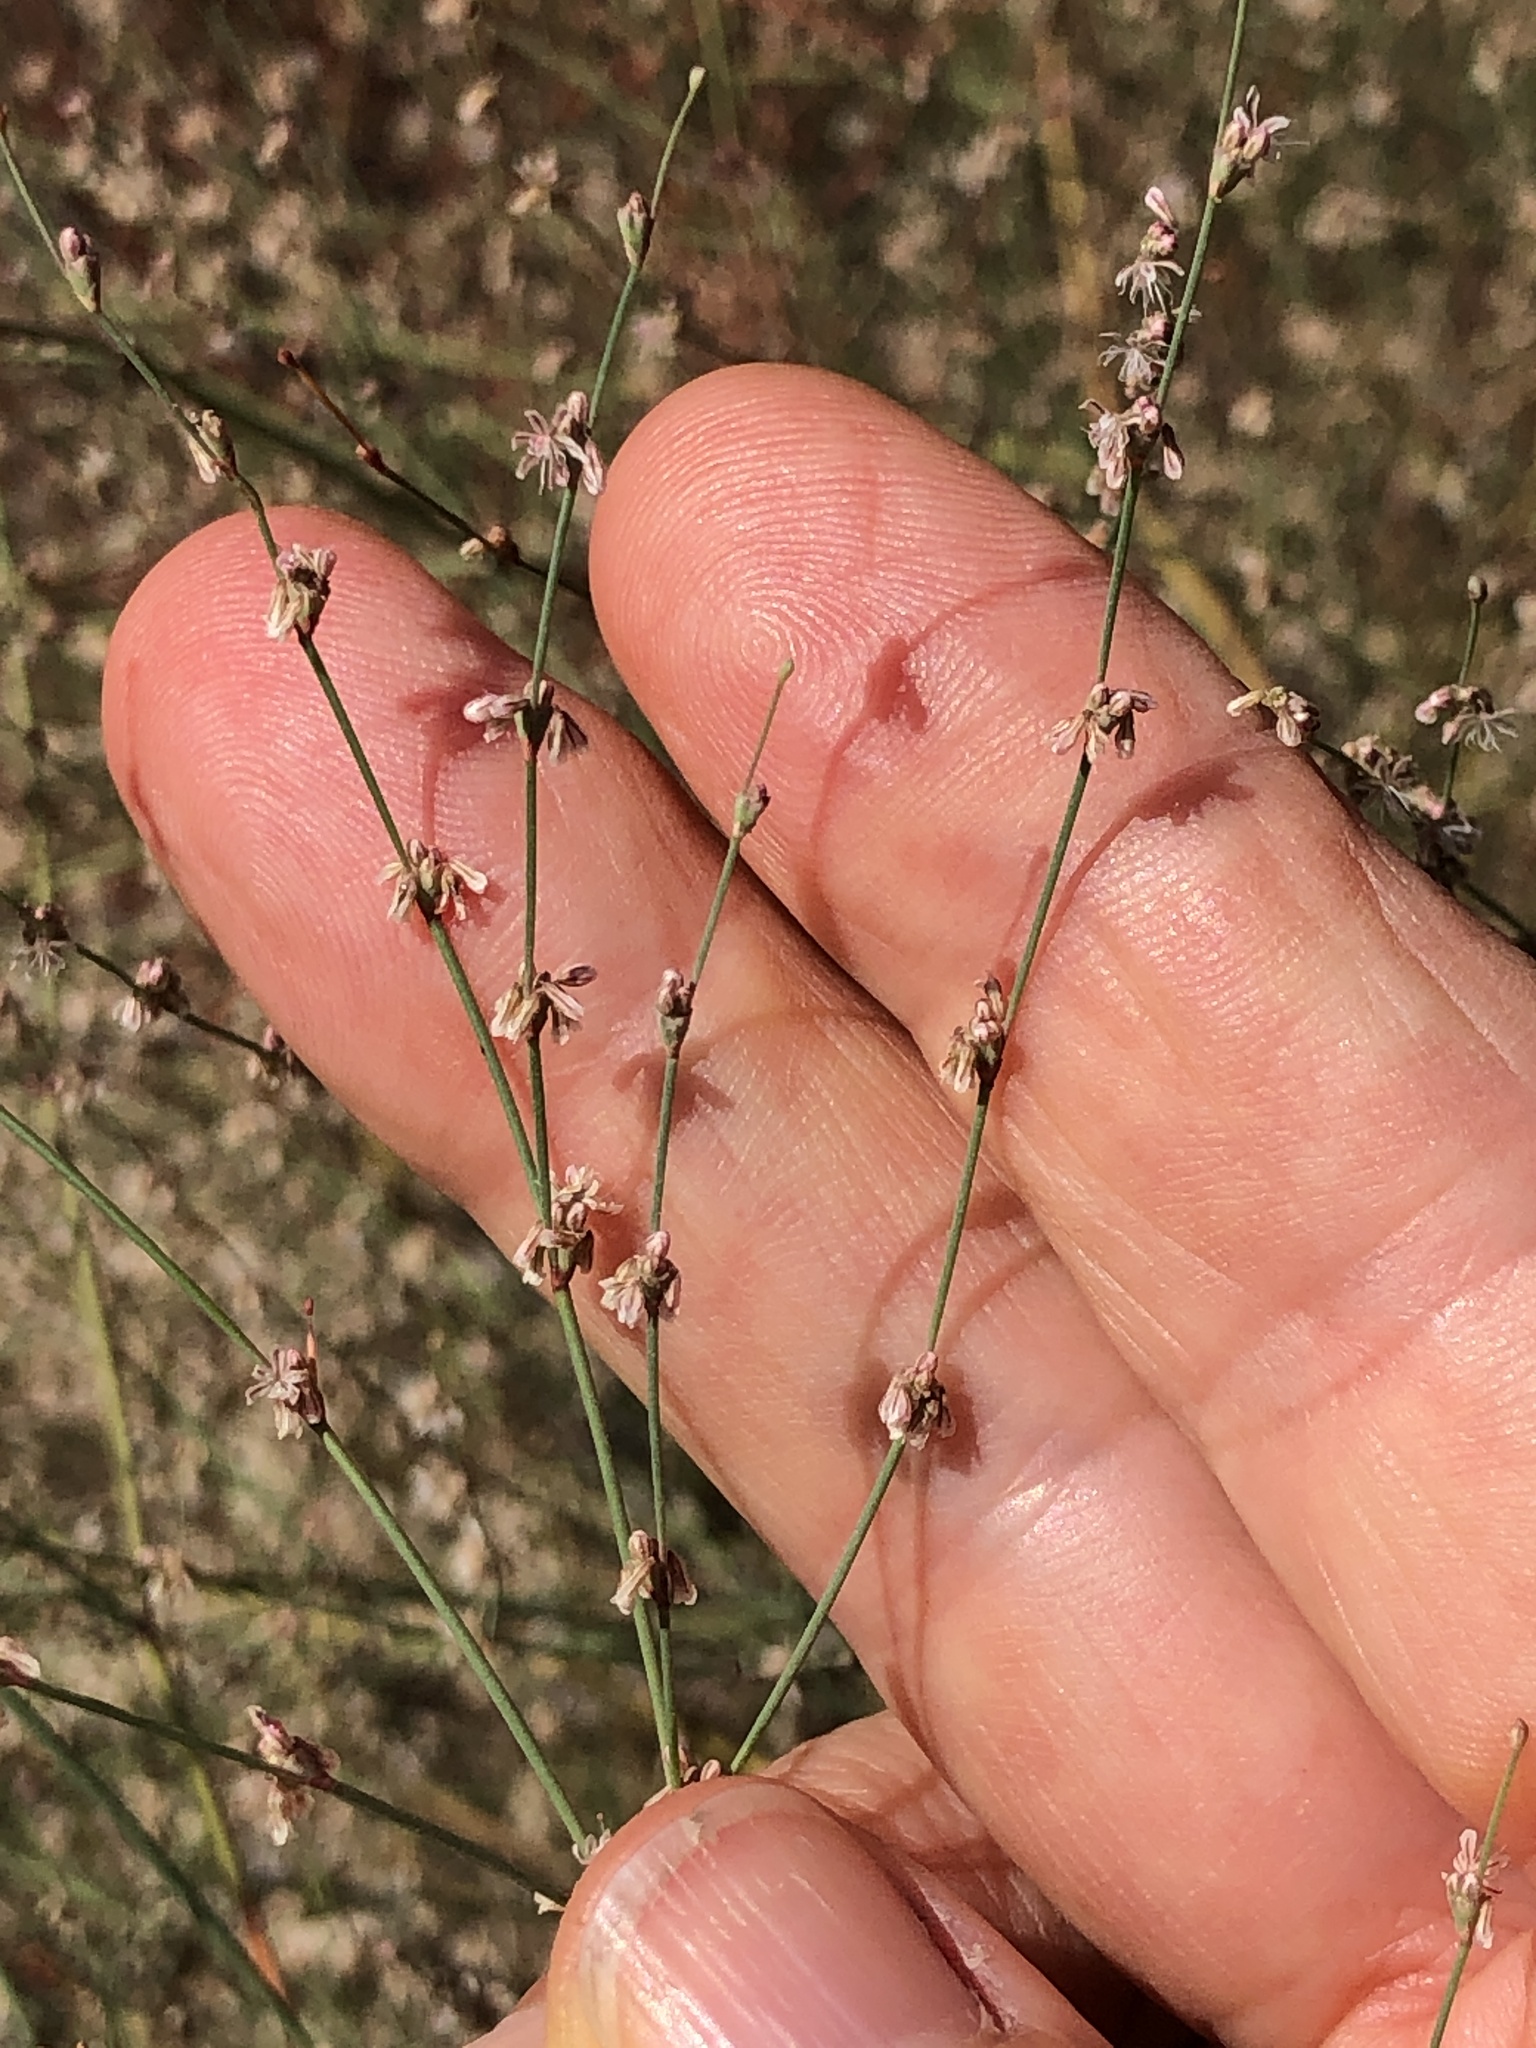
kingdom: Plantae
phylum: Tracheophyta
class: Magnoliopsida
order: Caryophyllales
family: Polygonaceae
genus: Eriogonum
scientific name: Eriogonum elegans
